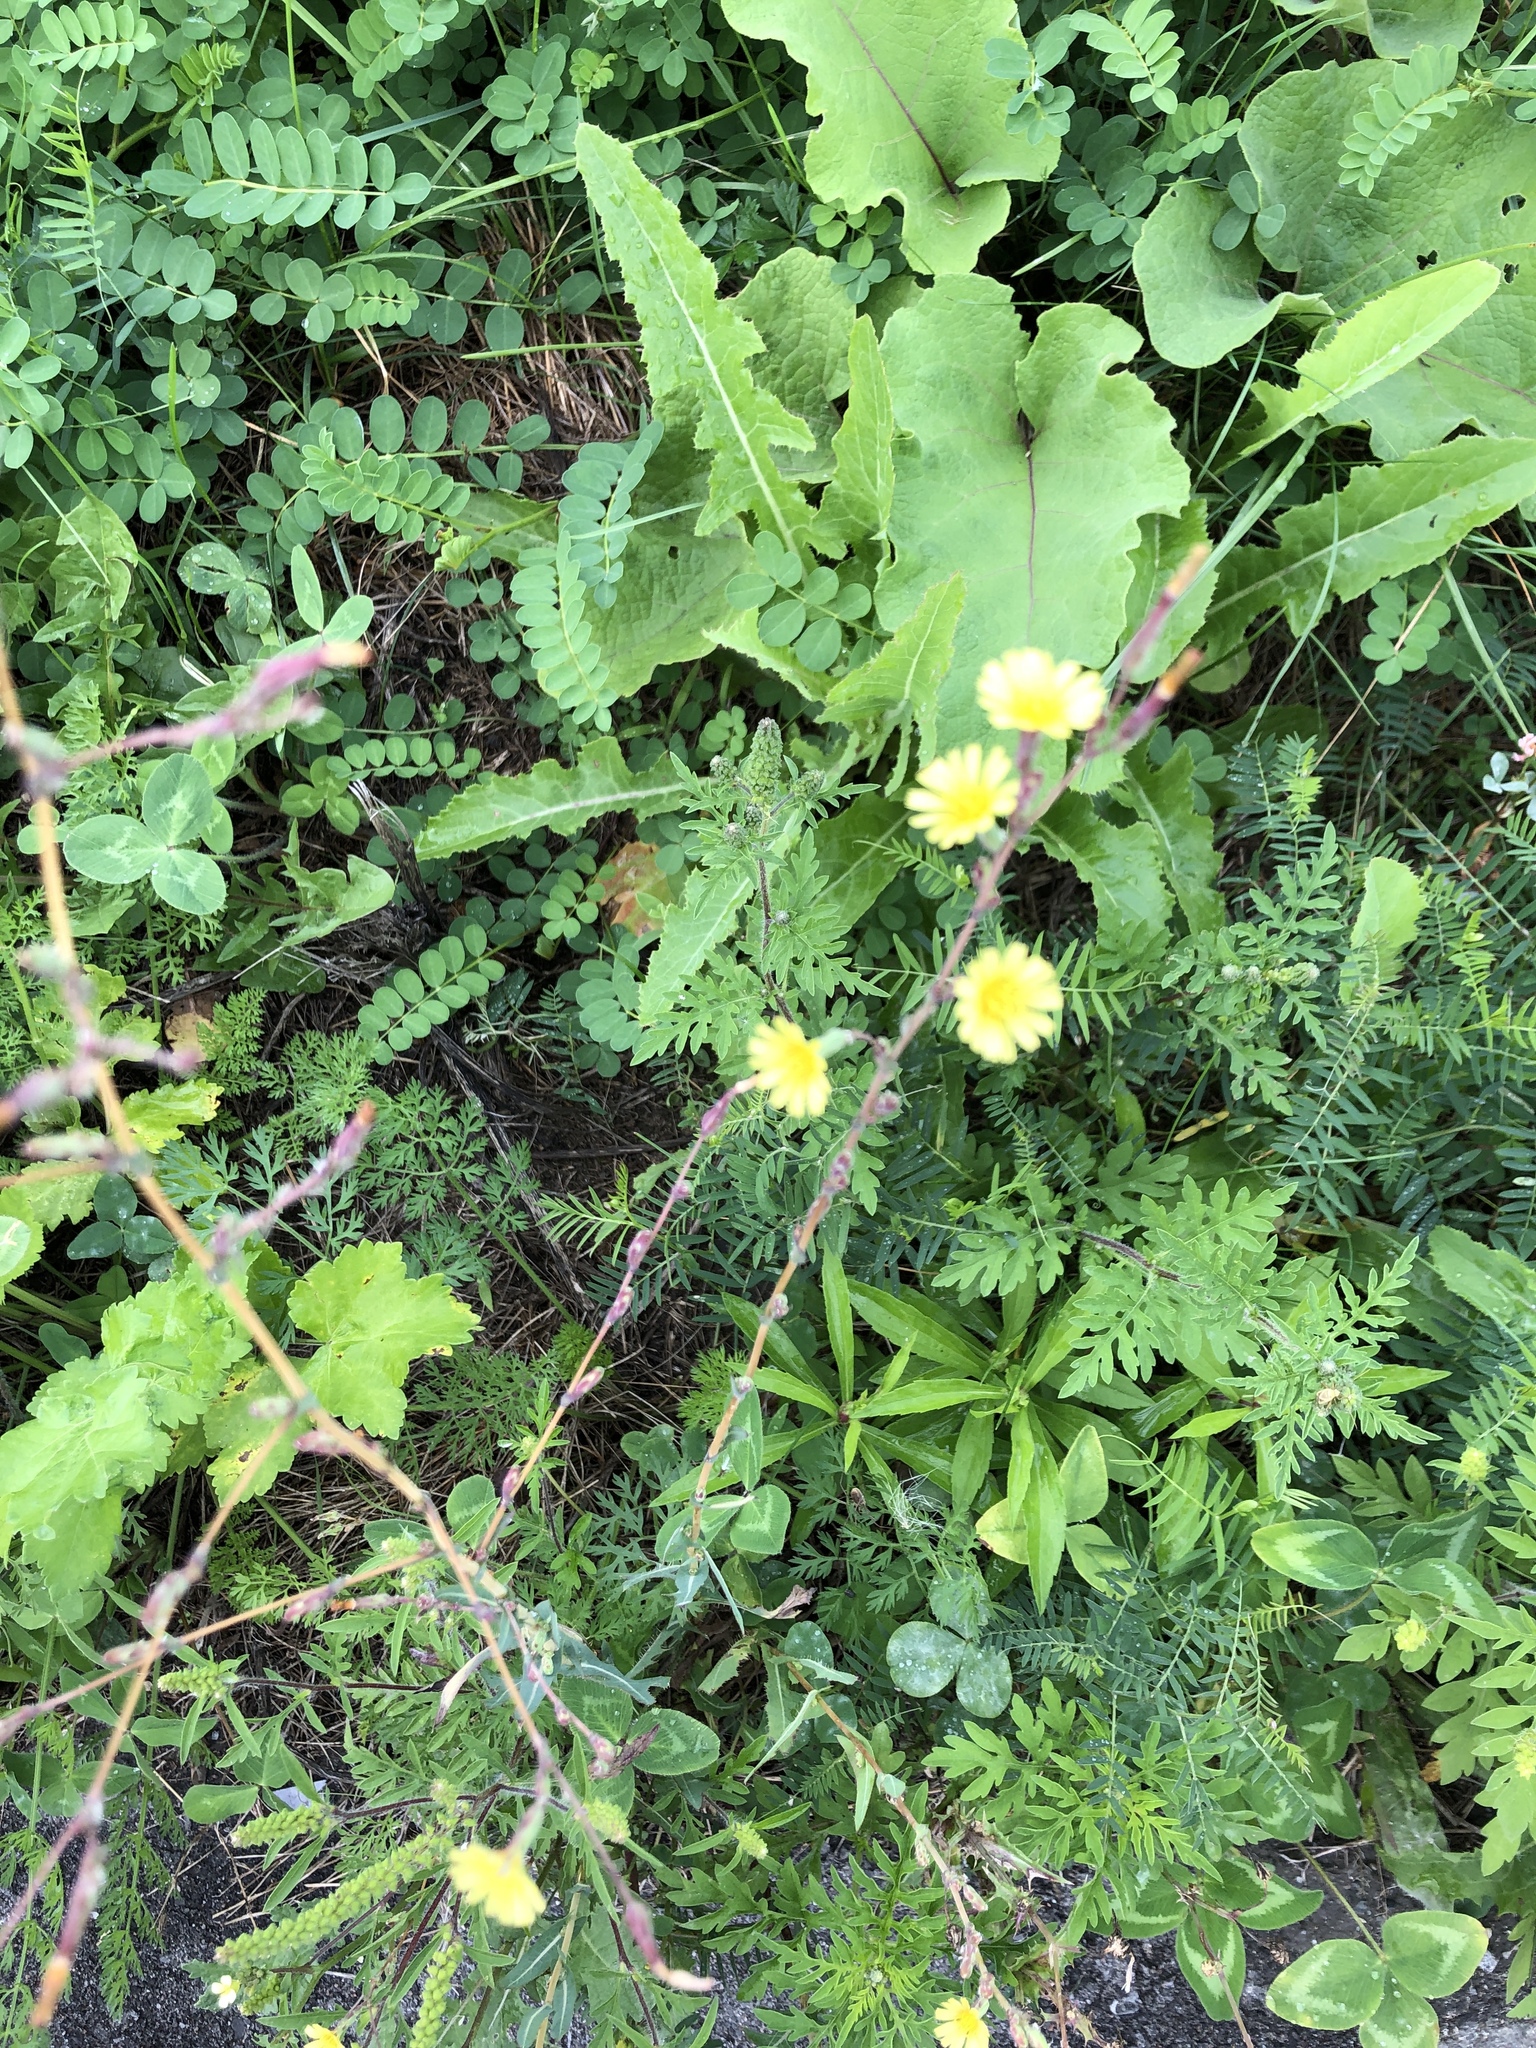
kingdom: Plantae
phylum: Tracheophyta
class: Magnoliopsida
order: Asterales
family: Asteraceae
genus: Lactuca
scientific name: Lactuca serriola
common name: Prickly lettuce
